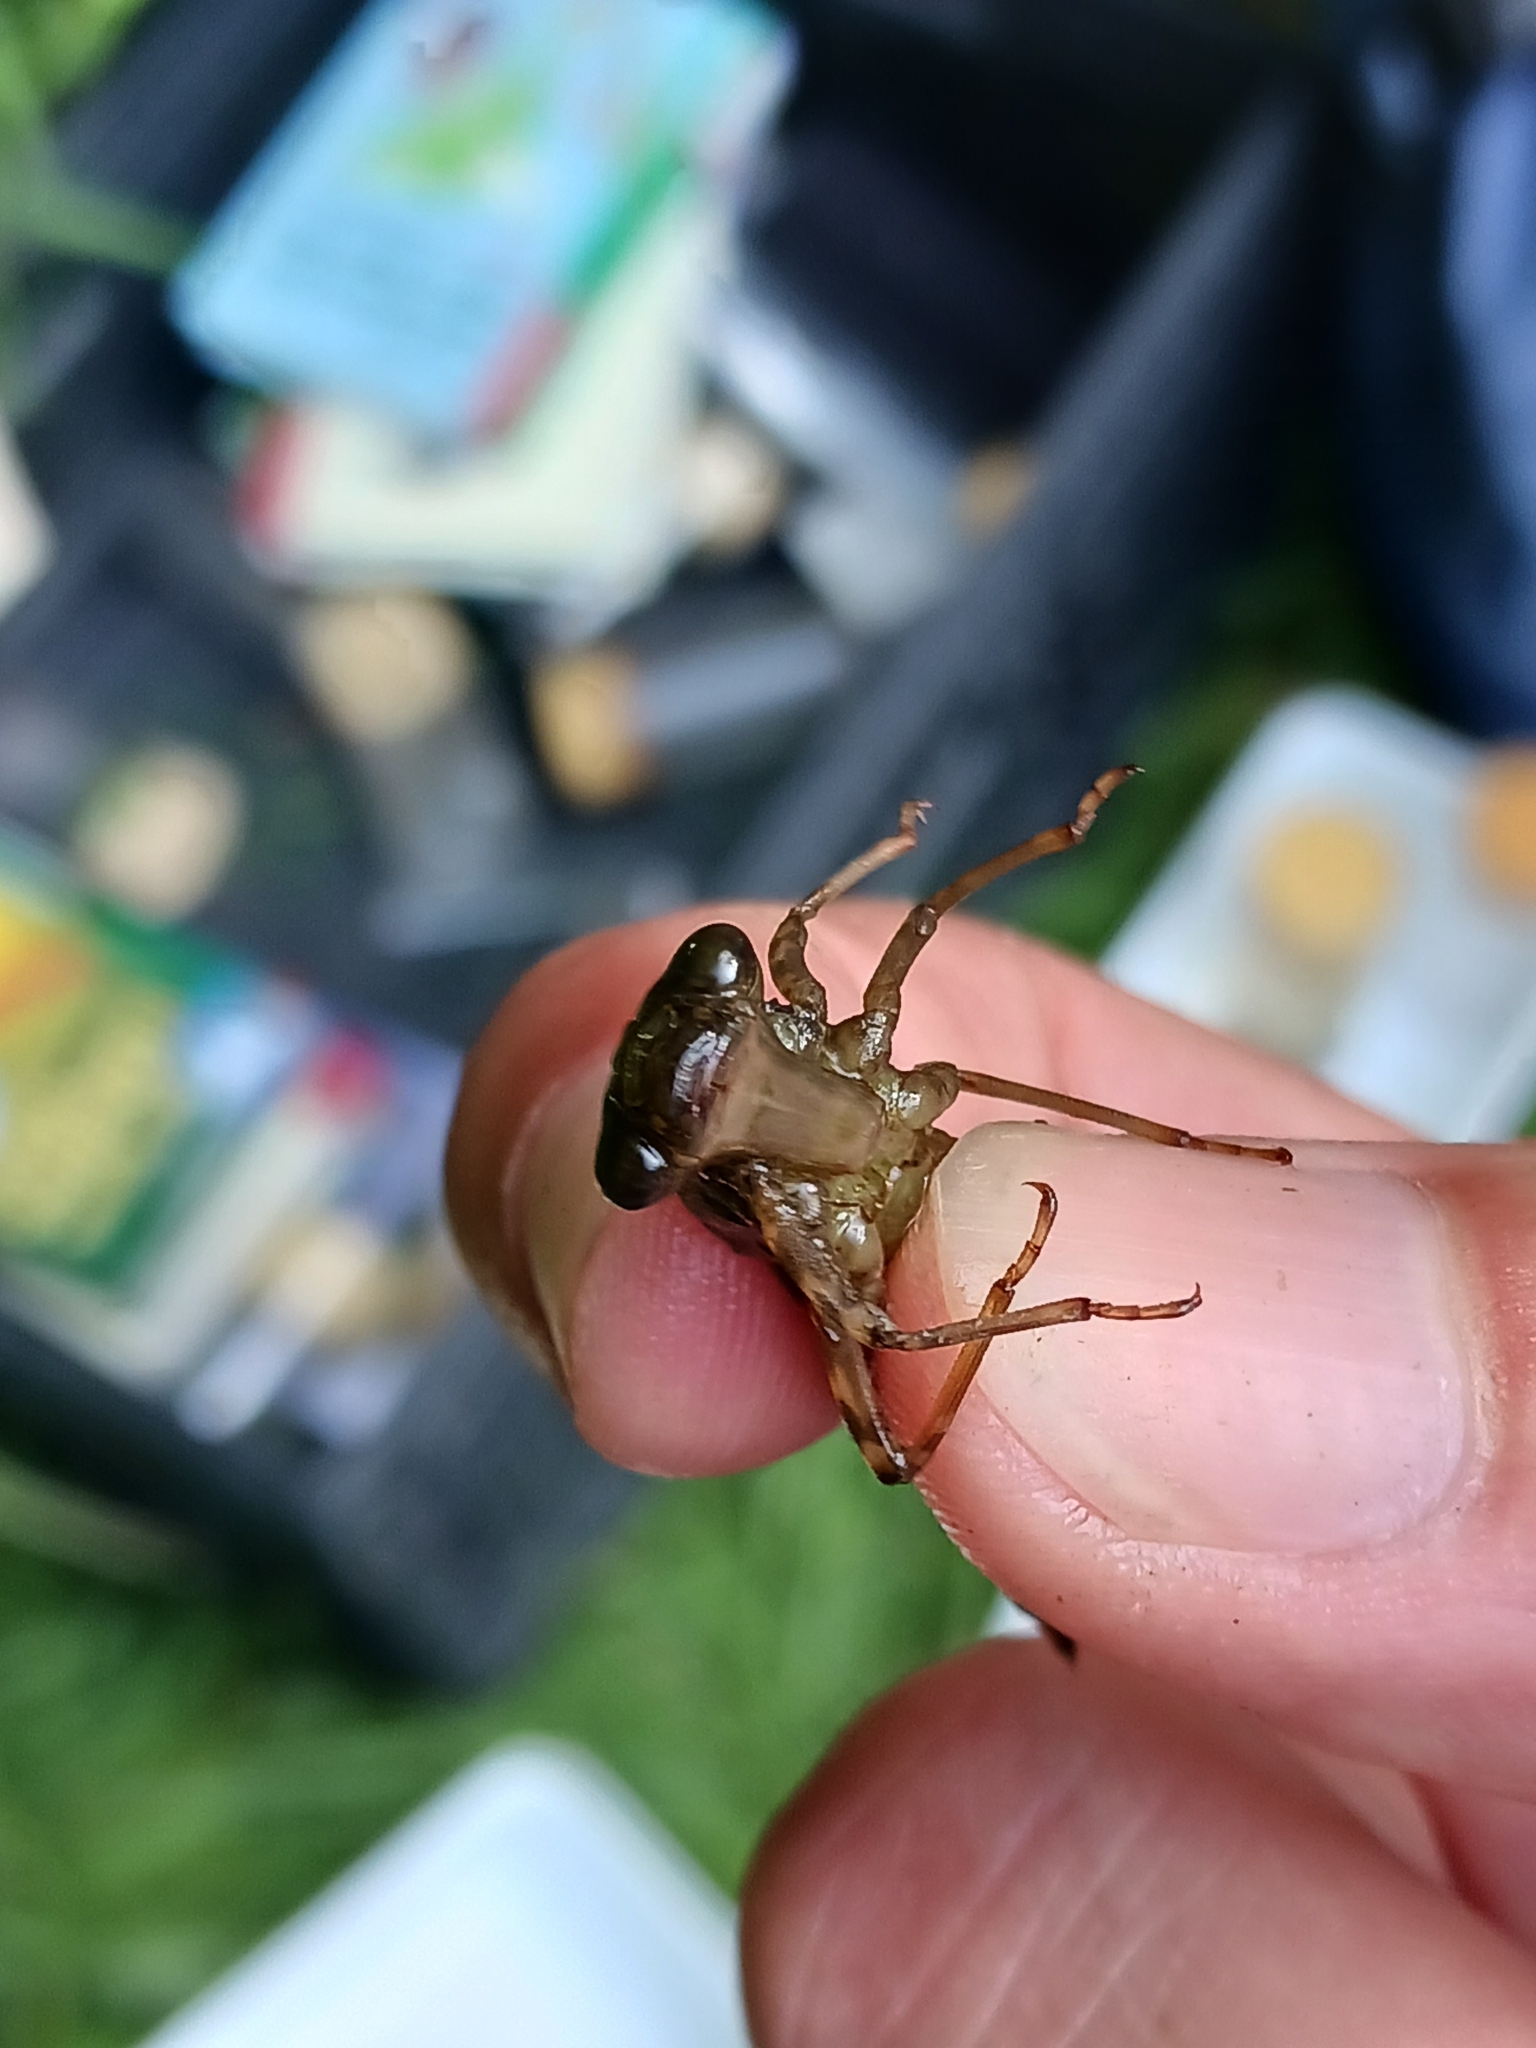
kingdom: Animalia
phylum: Arthropoda
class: Insecta
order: Odonata
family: Aeshnidae
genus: Aeshna
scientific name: Aeshna
